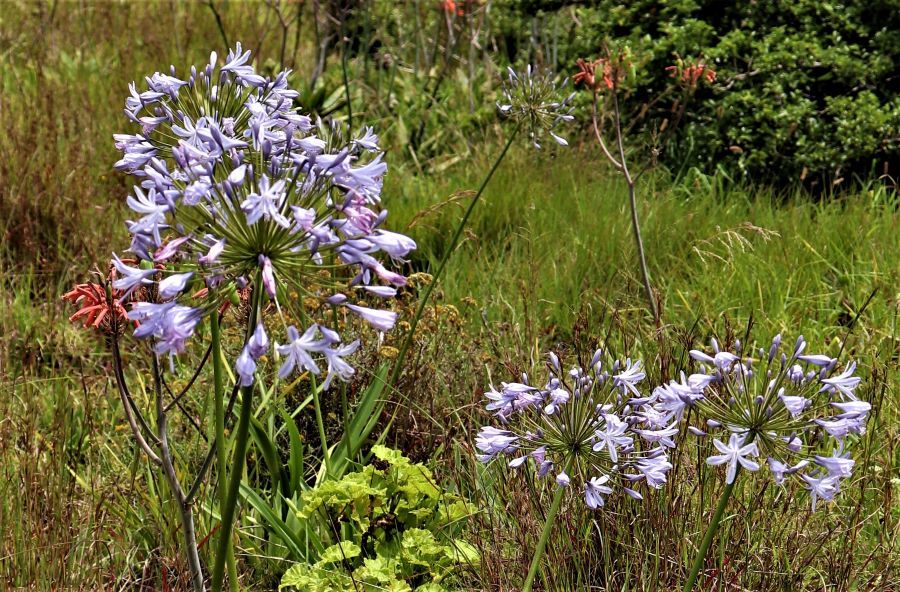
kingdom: Plantae
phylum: Tracheophyta
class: Liliopsida
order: Asparagales
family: Amaryllidaceae
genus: Agapanthus
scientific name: Agapanthus praecox
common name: African-lily
